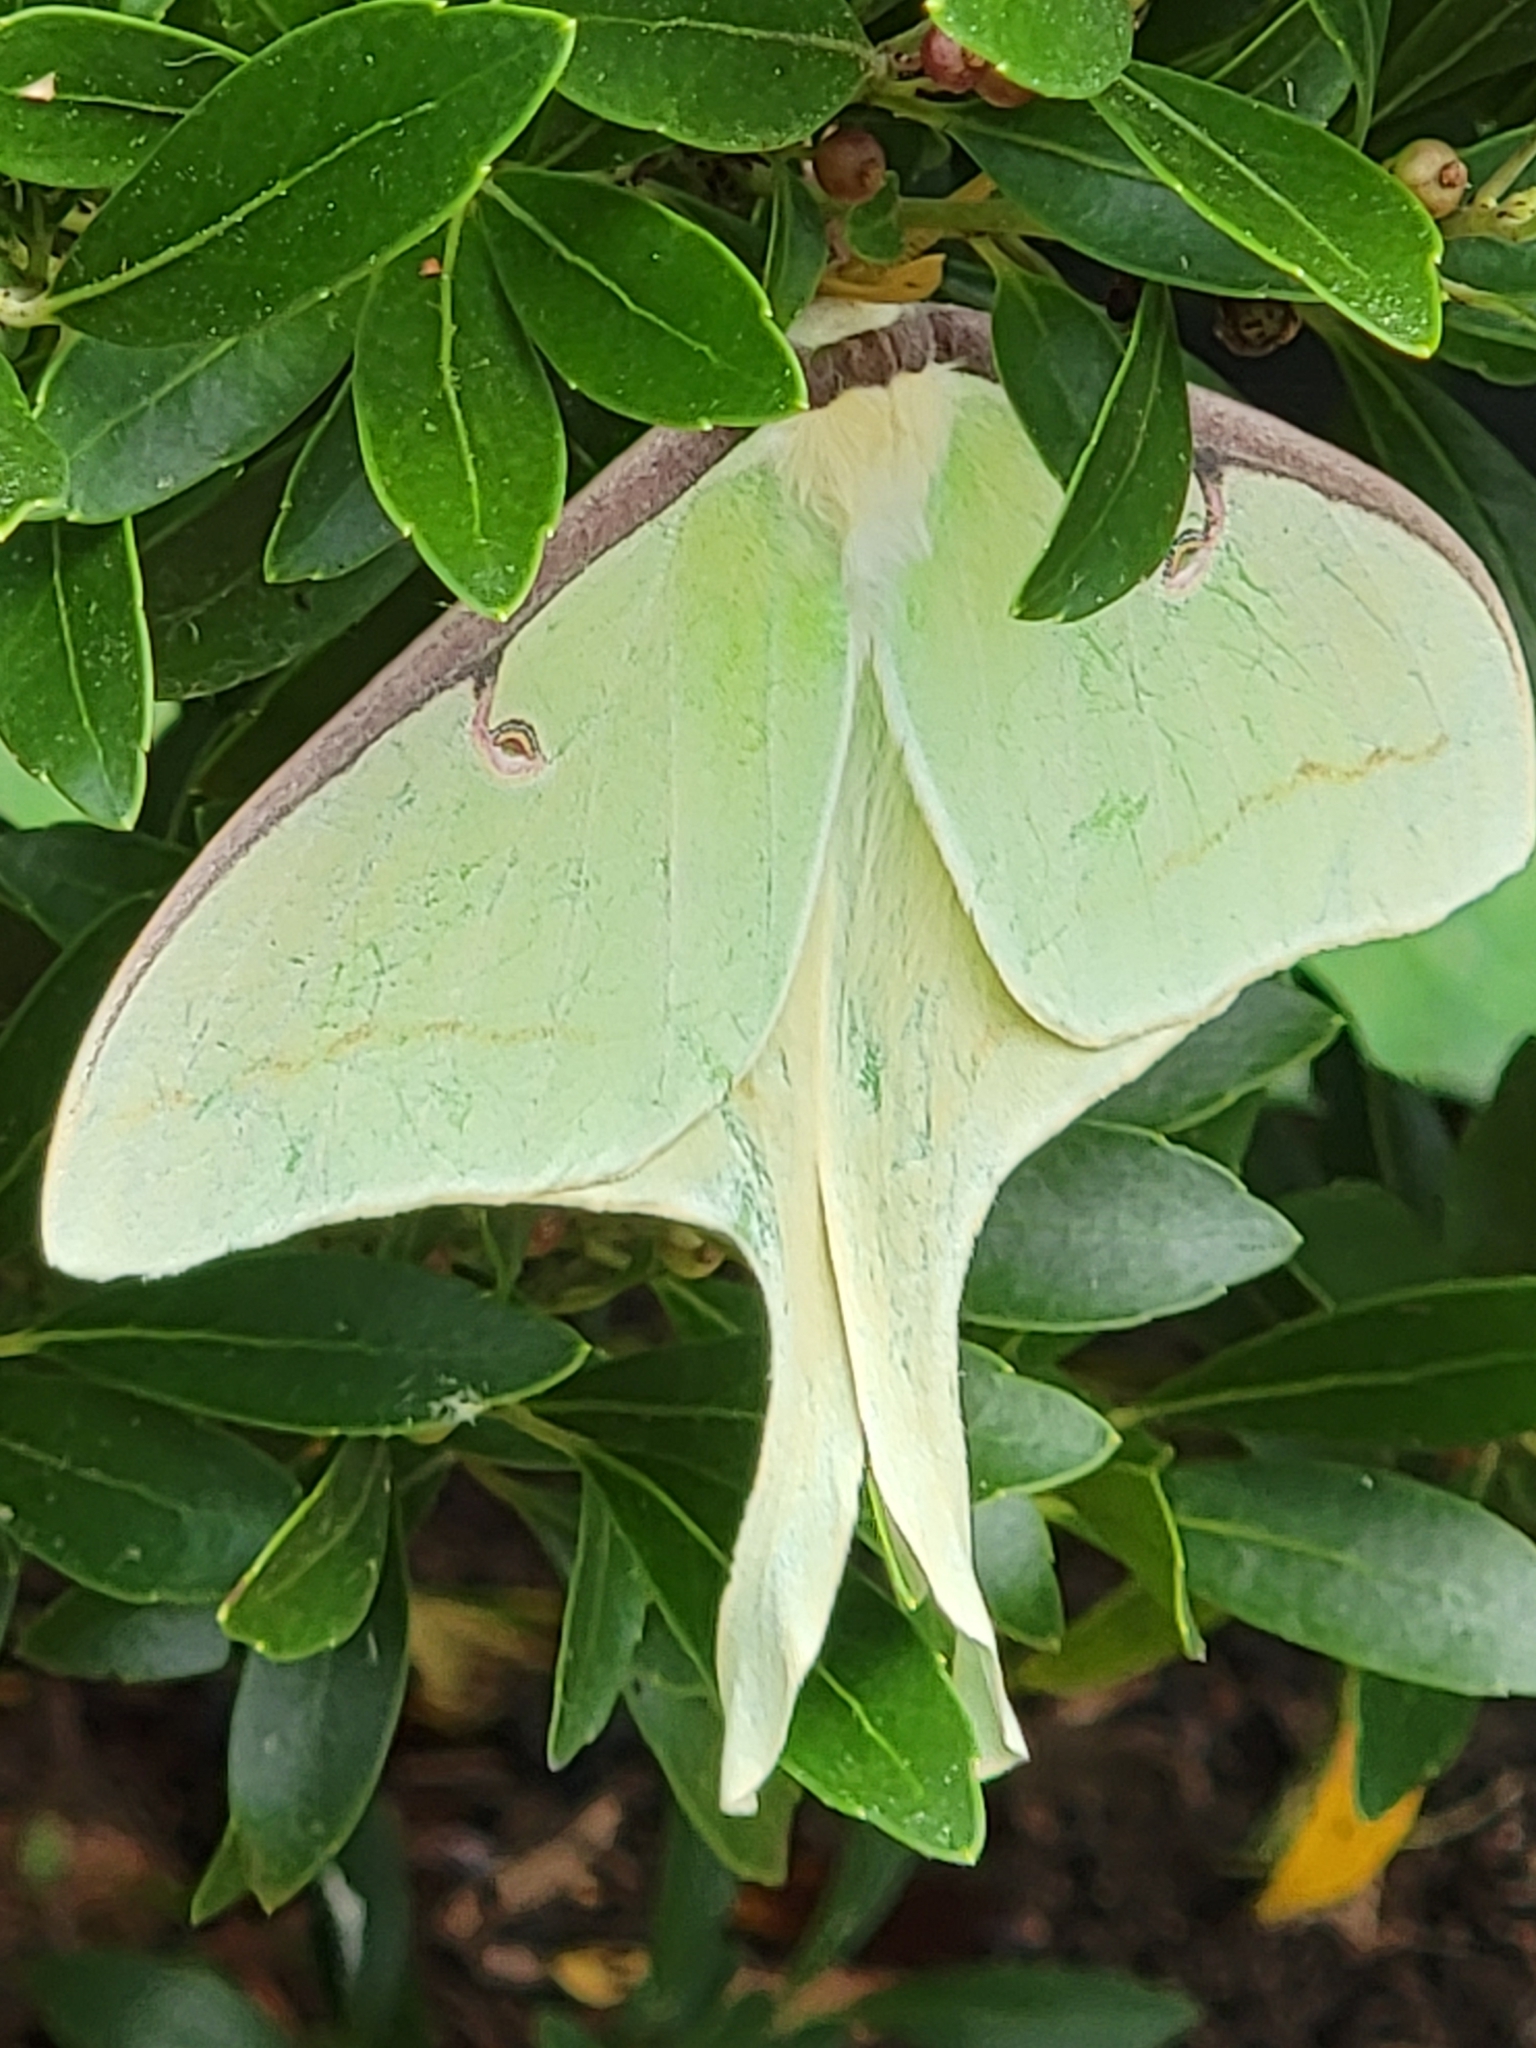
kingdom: Animalia
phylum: Arthropoda
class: Insecta
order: Lepidoptera
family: Saturniidae
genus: Actias
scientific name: Actias luna
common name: Luna moth
